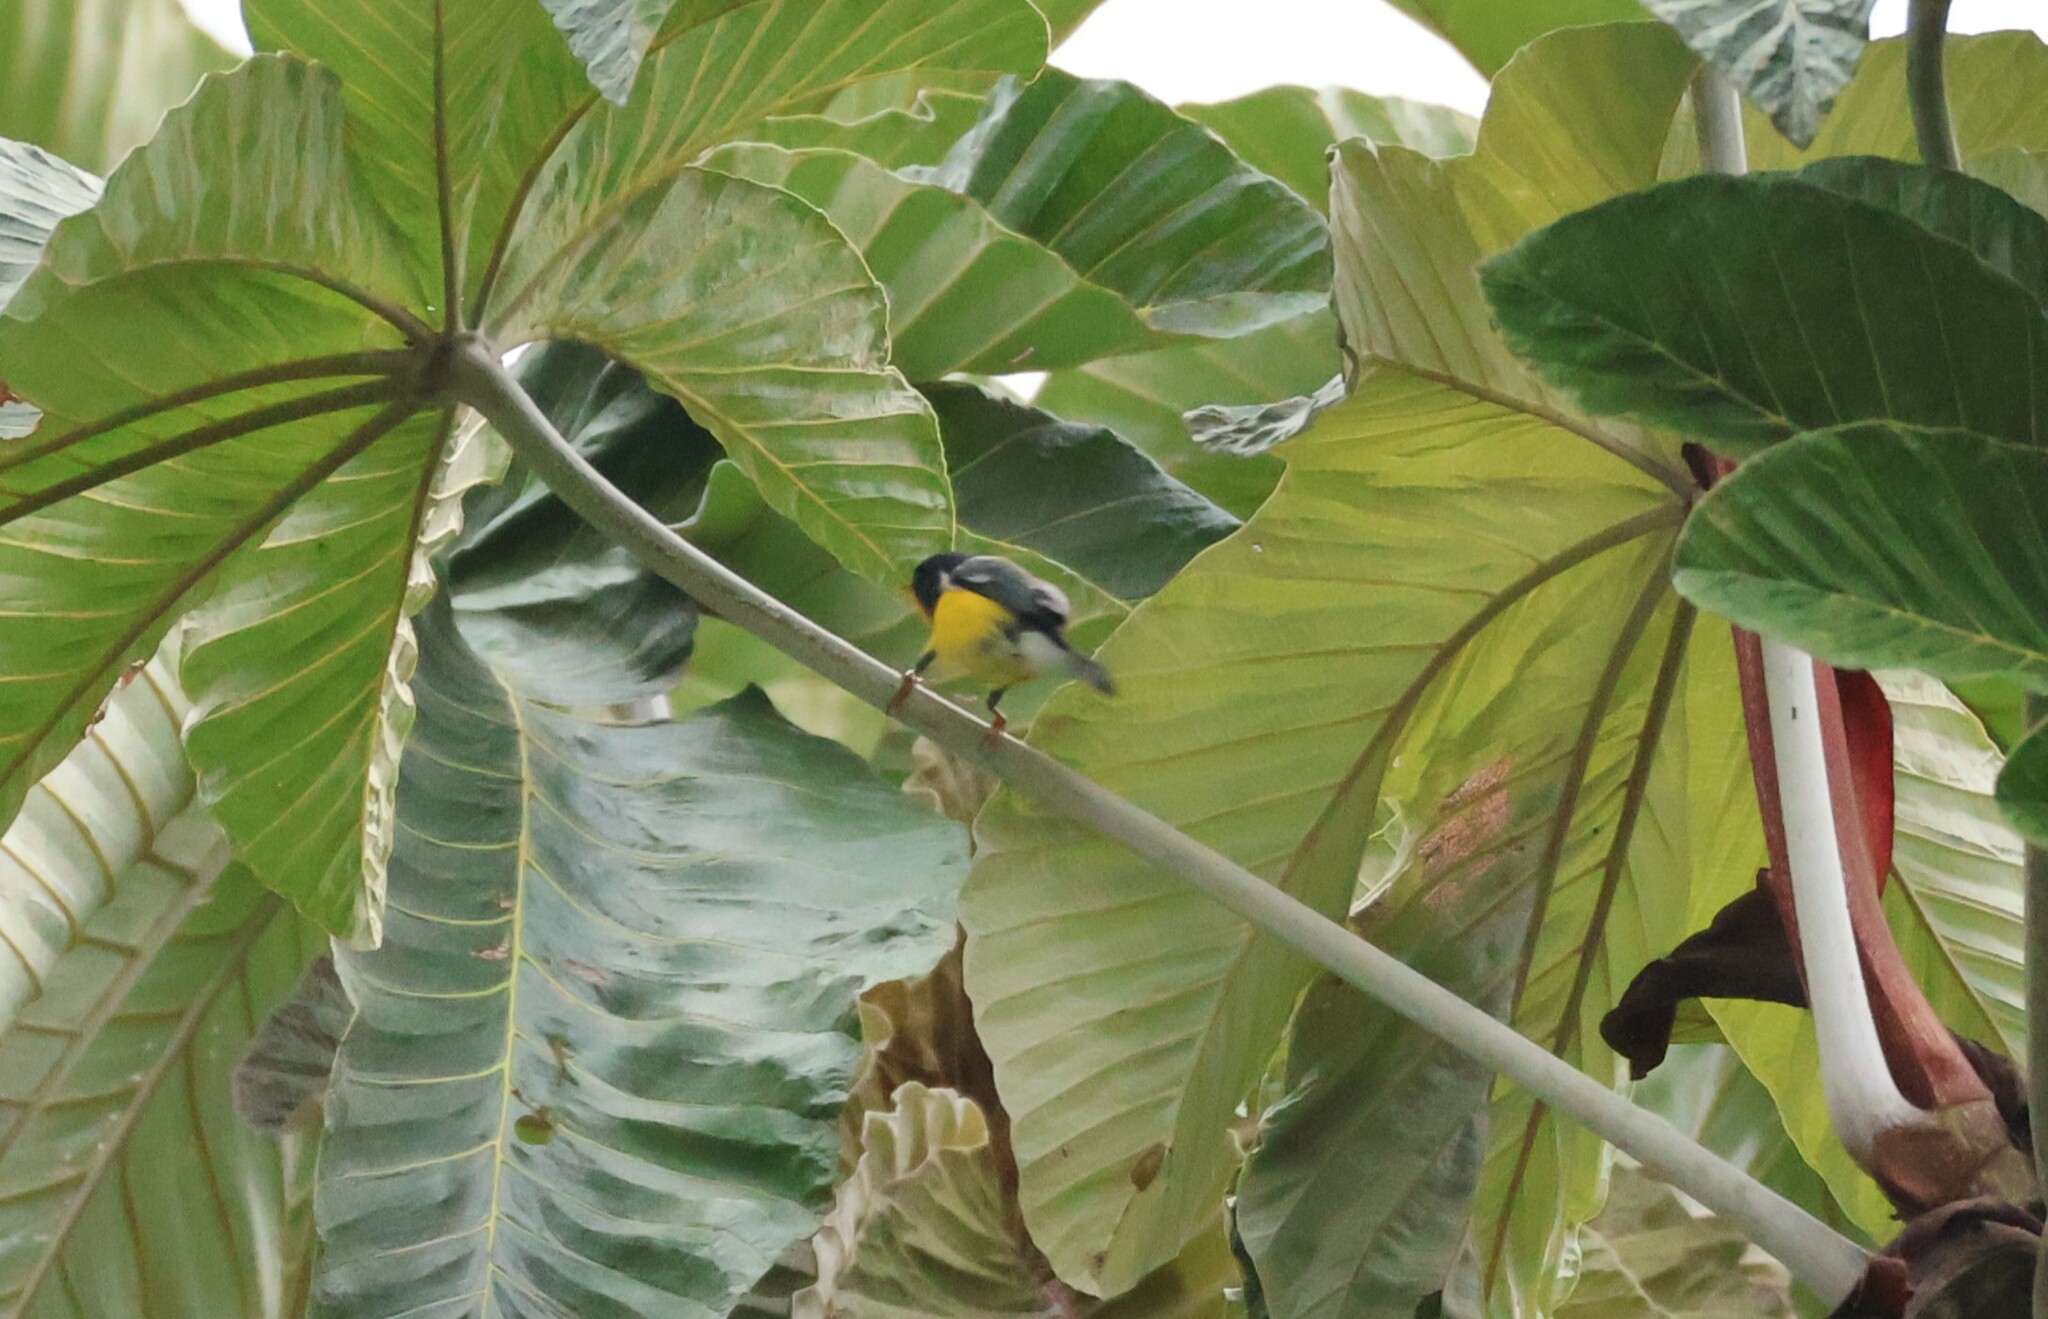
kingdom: Animalia
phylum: Chordata
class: Aves
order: Passeriformes
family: Parulidae
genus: Setophaga
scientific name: Setophaga pitiayumi
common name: Tropical parula
